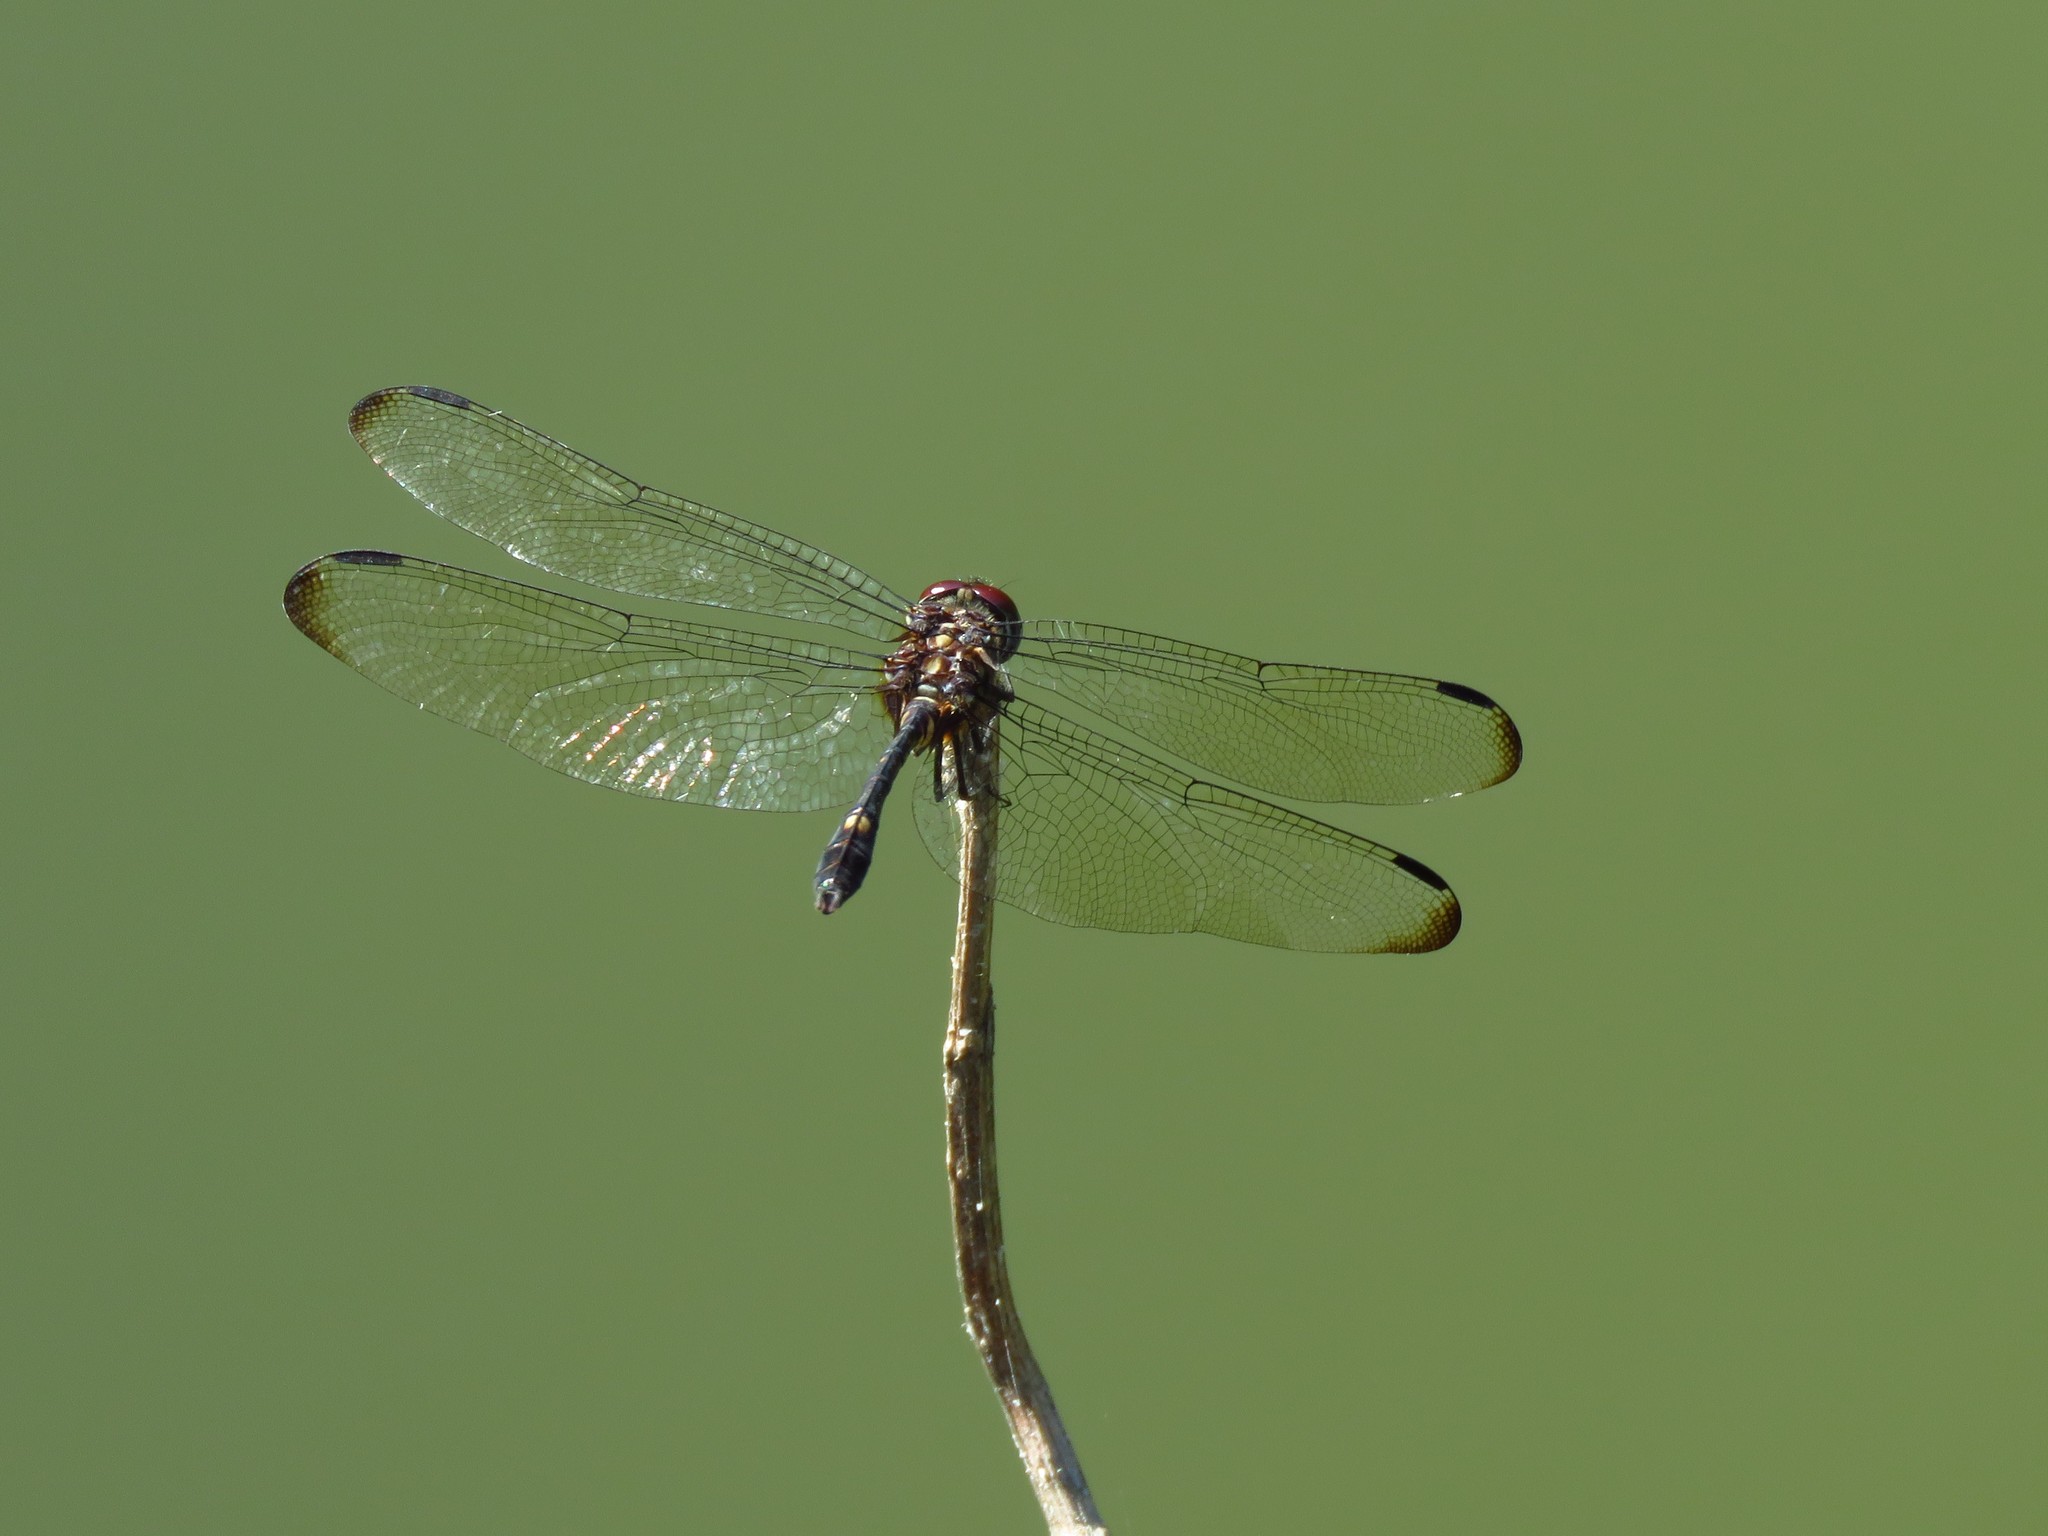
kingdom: Animalia
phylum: Arthropoda
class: Insecta
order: Odonata
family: Libellulidae
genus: Dythemis
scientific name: Dythemis velox
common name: Swift setwing
